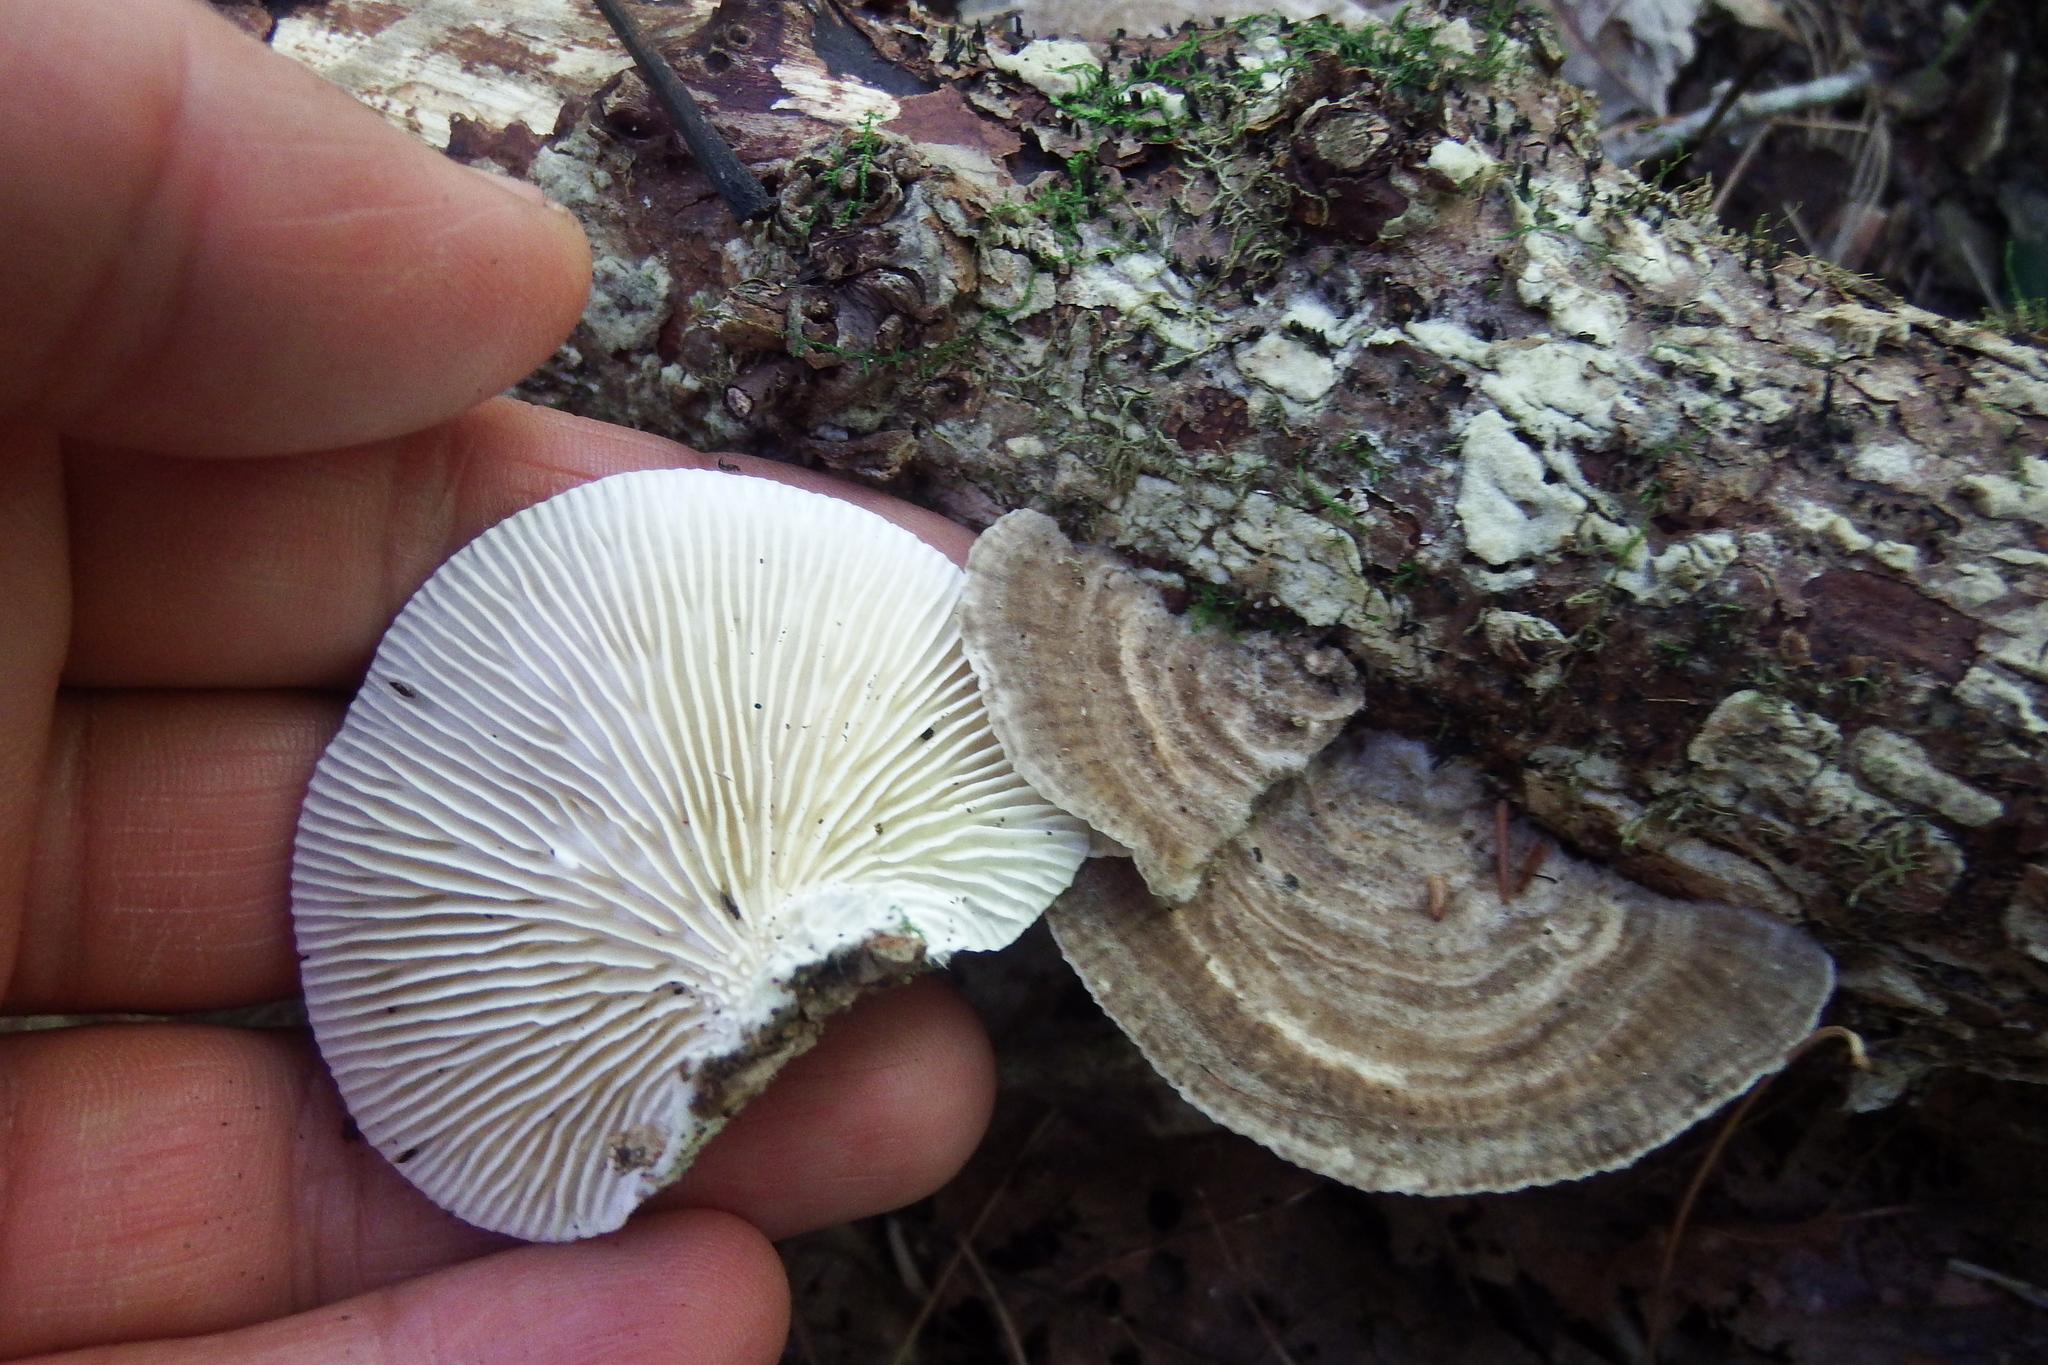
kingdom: Fungi
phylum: Basidiomycota
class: Agaricomycetes
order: Polyporales
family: Polyporaceae
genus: Lenzites
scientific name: Lenzites betulinus
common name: Birch mazegill
